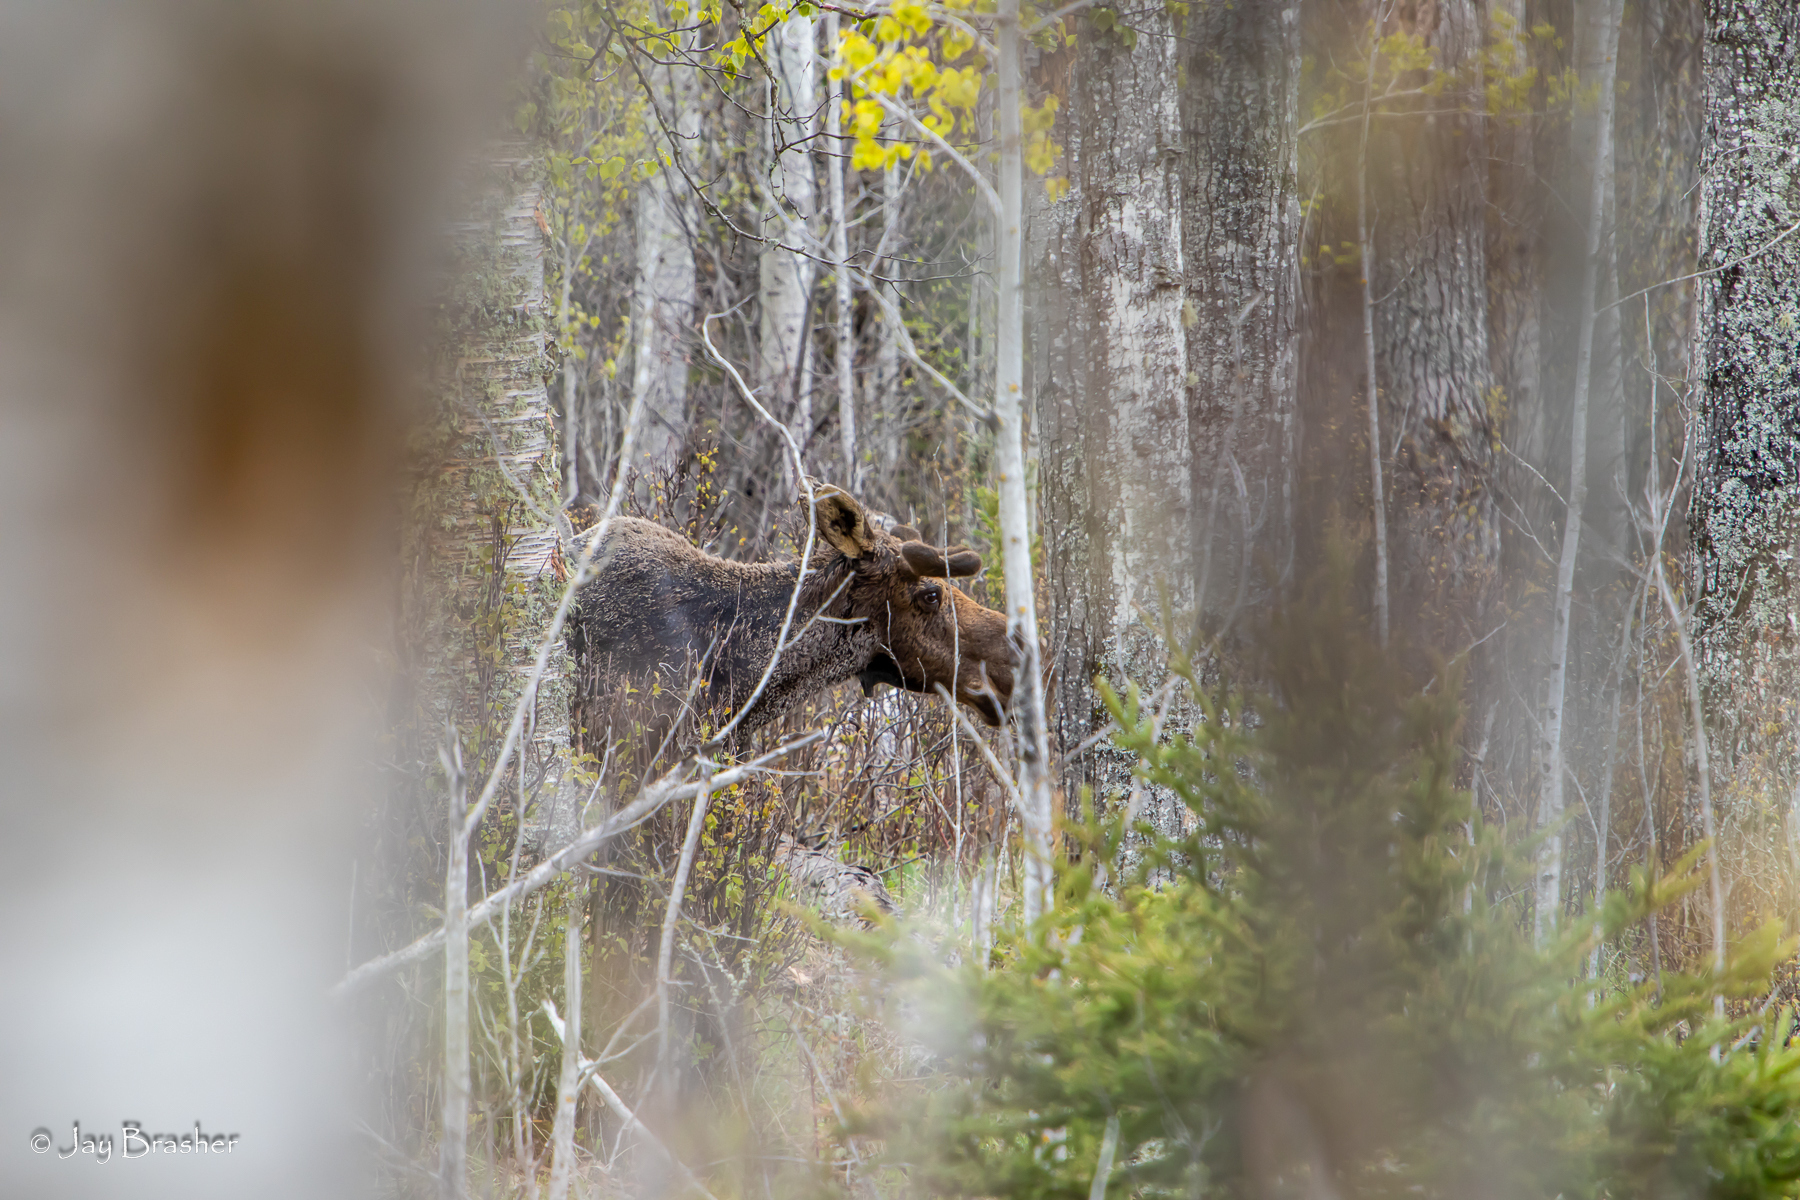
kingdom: Animalia
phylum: Chordata
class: Mammalia
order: Artiodactyla
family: Cervidae
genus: Alces
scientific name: Alces americanus
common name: Moose
